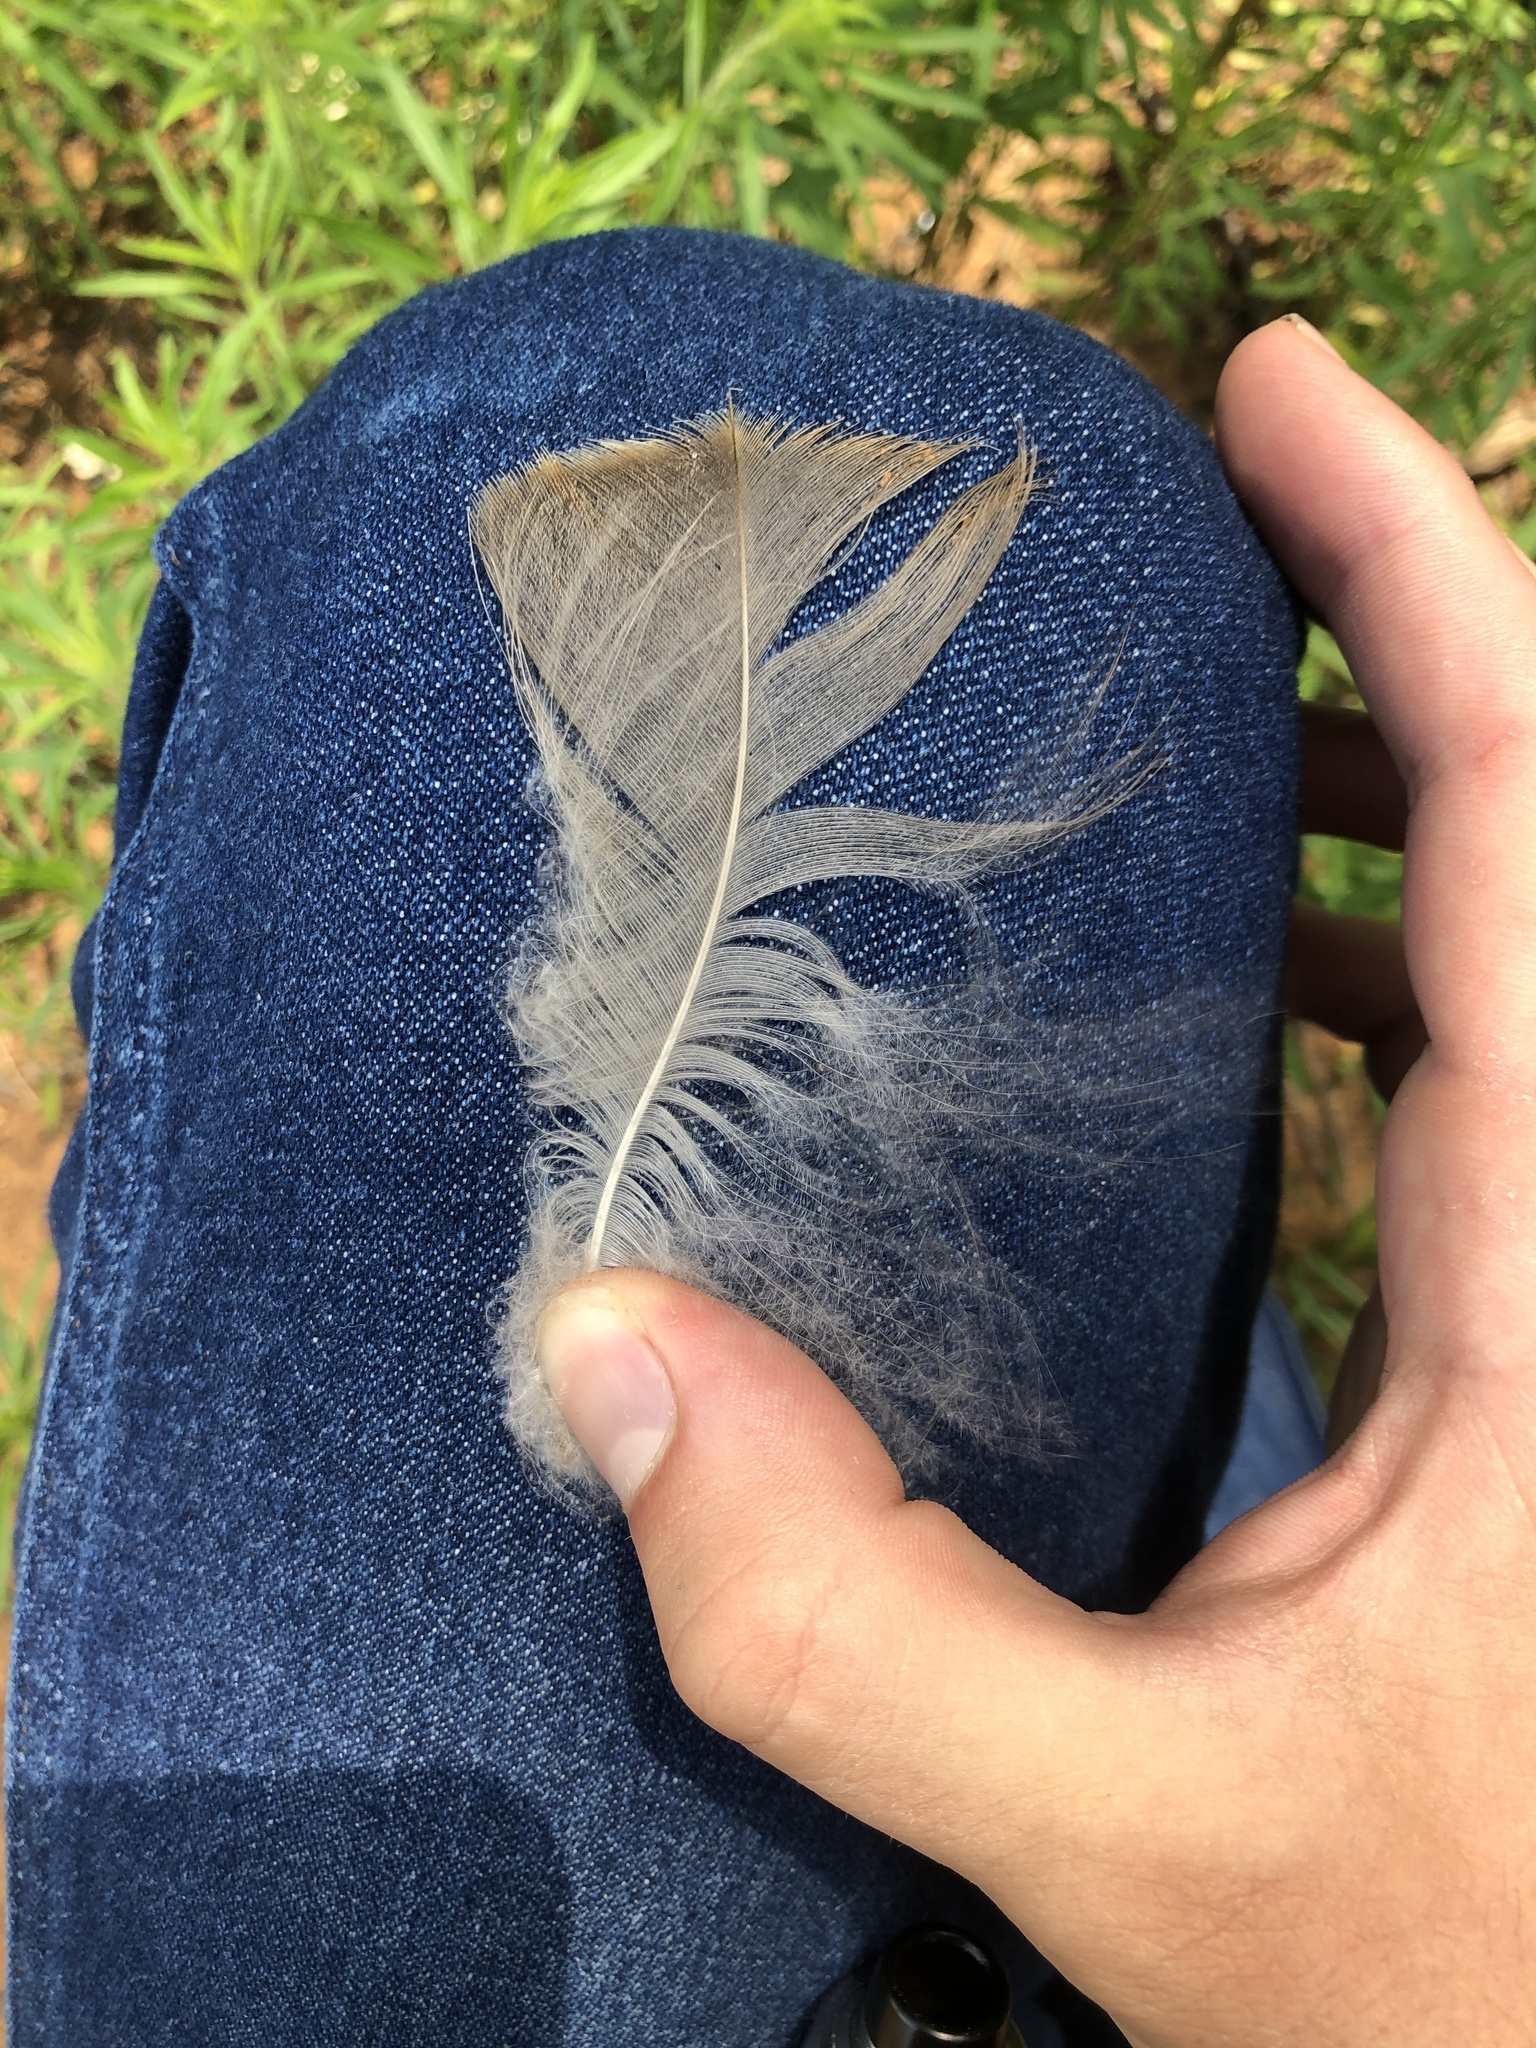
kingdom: Animalia
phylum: Chordata
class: Aves
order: Anseriformes
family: Anatidae
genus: Branta
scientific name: Branta canadensis
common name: Canada goose
